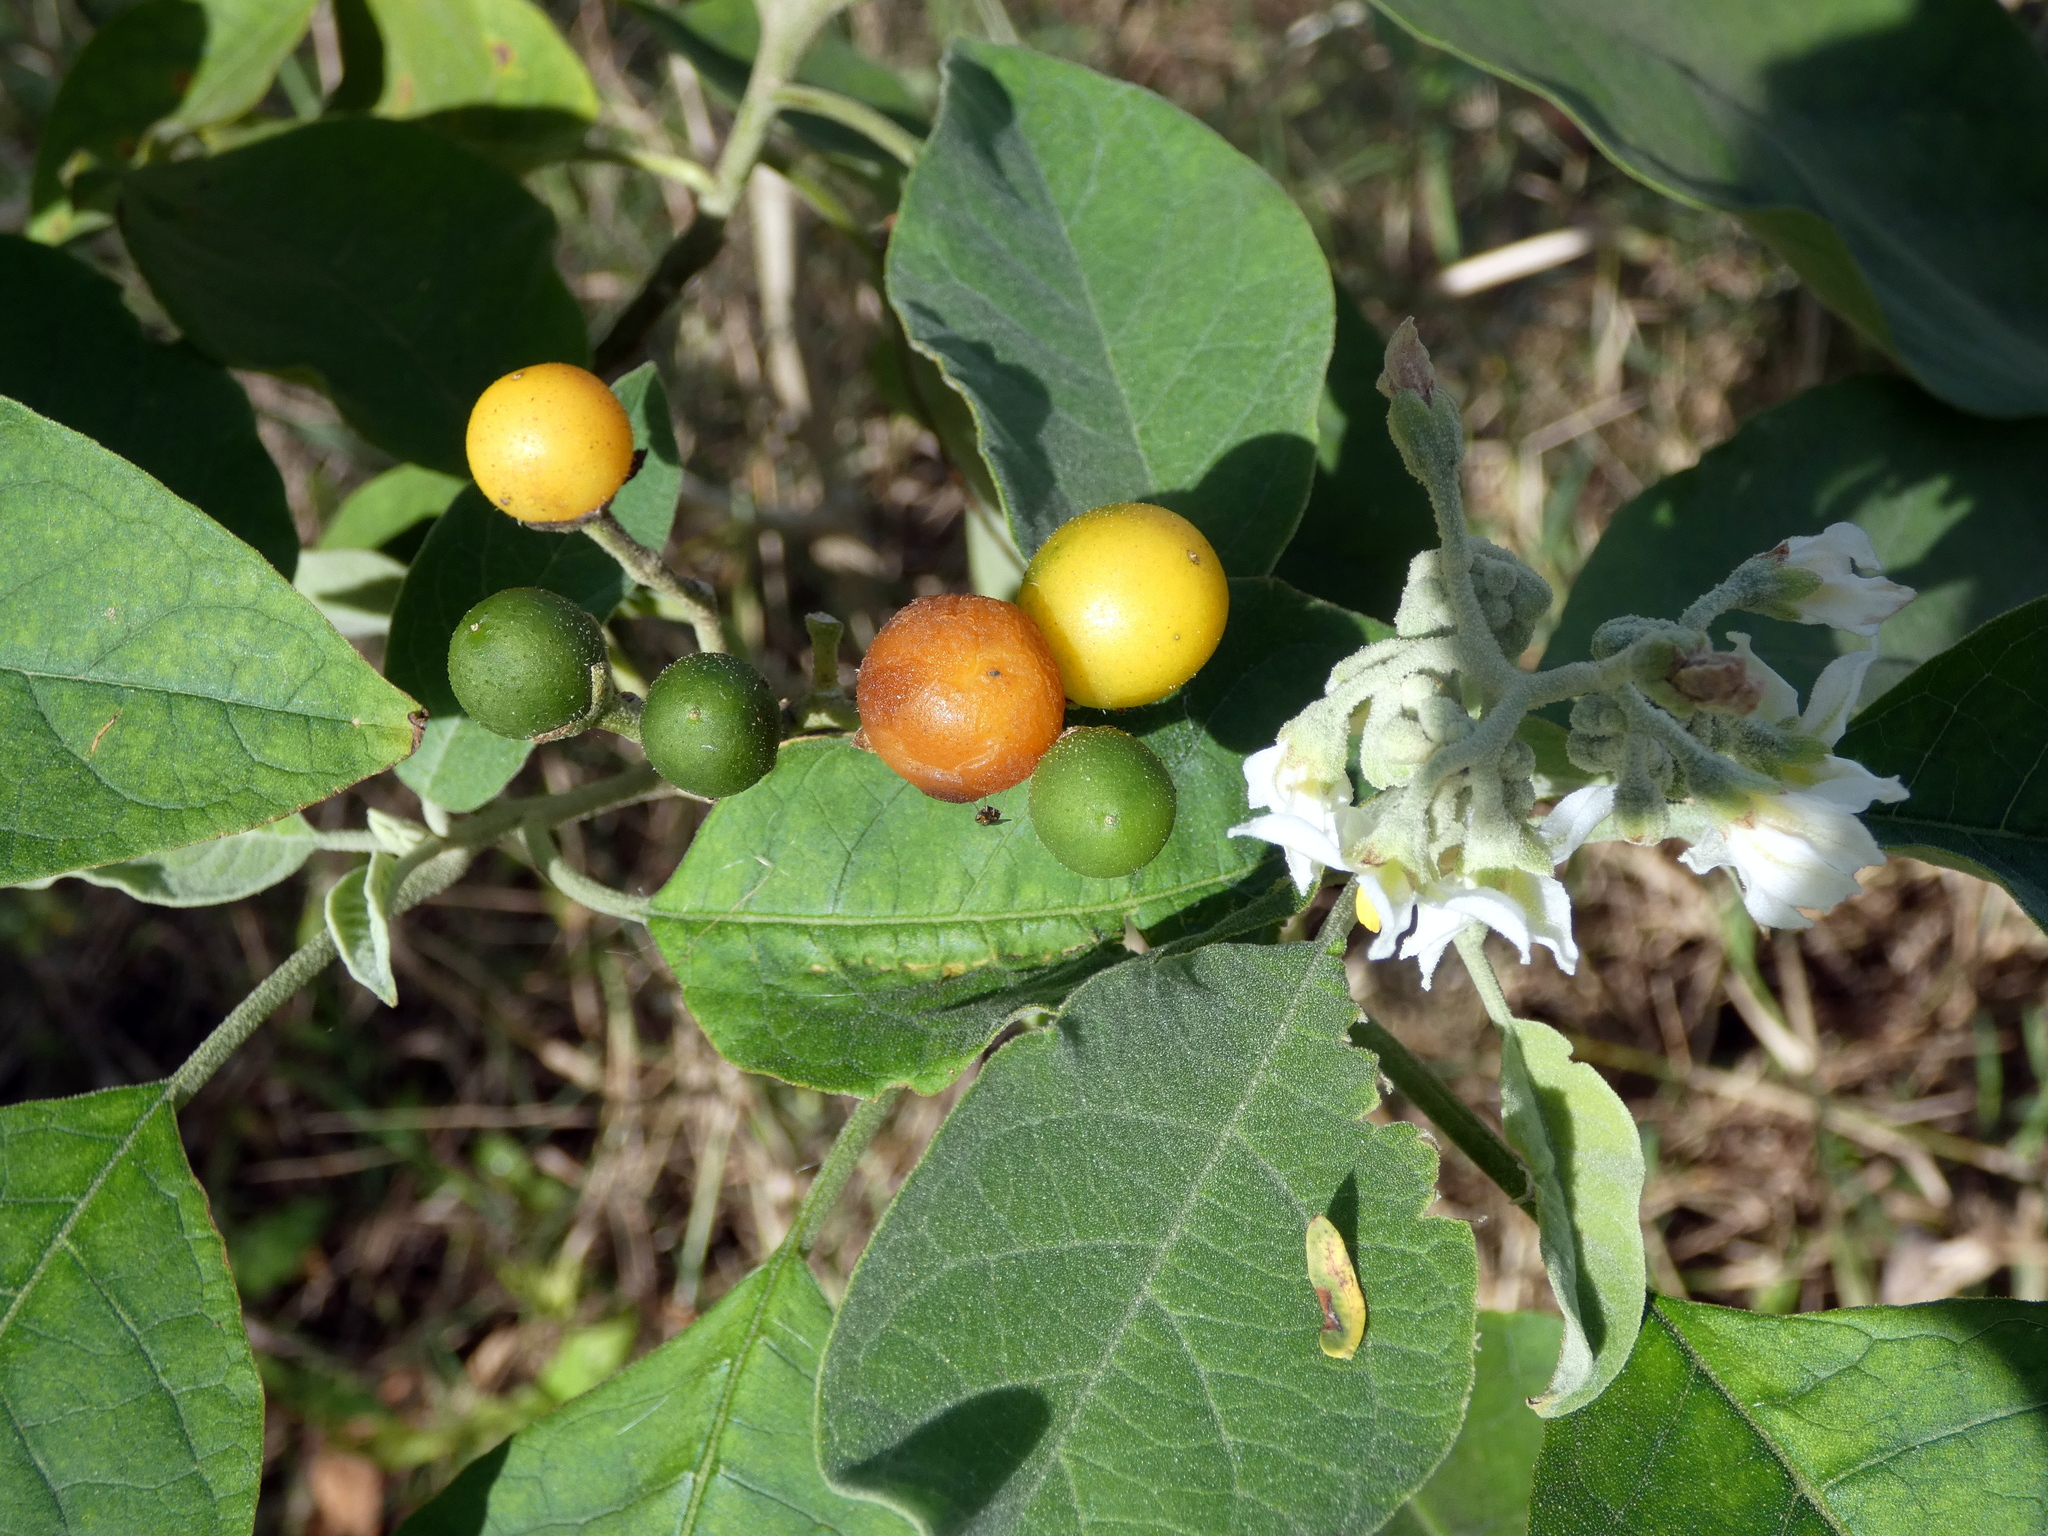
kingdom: Plantae
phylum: Tracheophyta
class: Magnoliopsida
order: Solanales
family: Solanaceae
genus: Solanum
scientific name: Solanum erianthum
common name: Tobacco-tree
